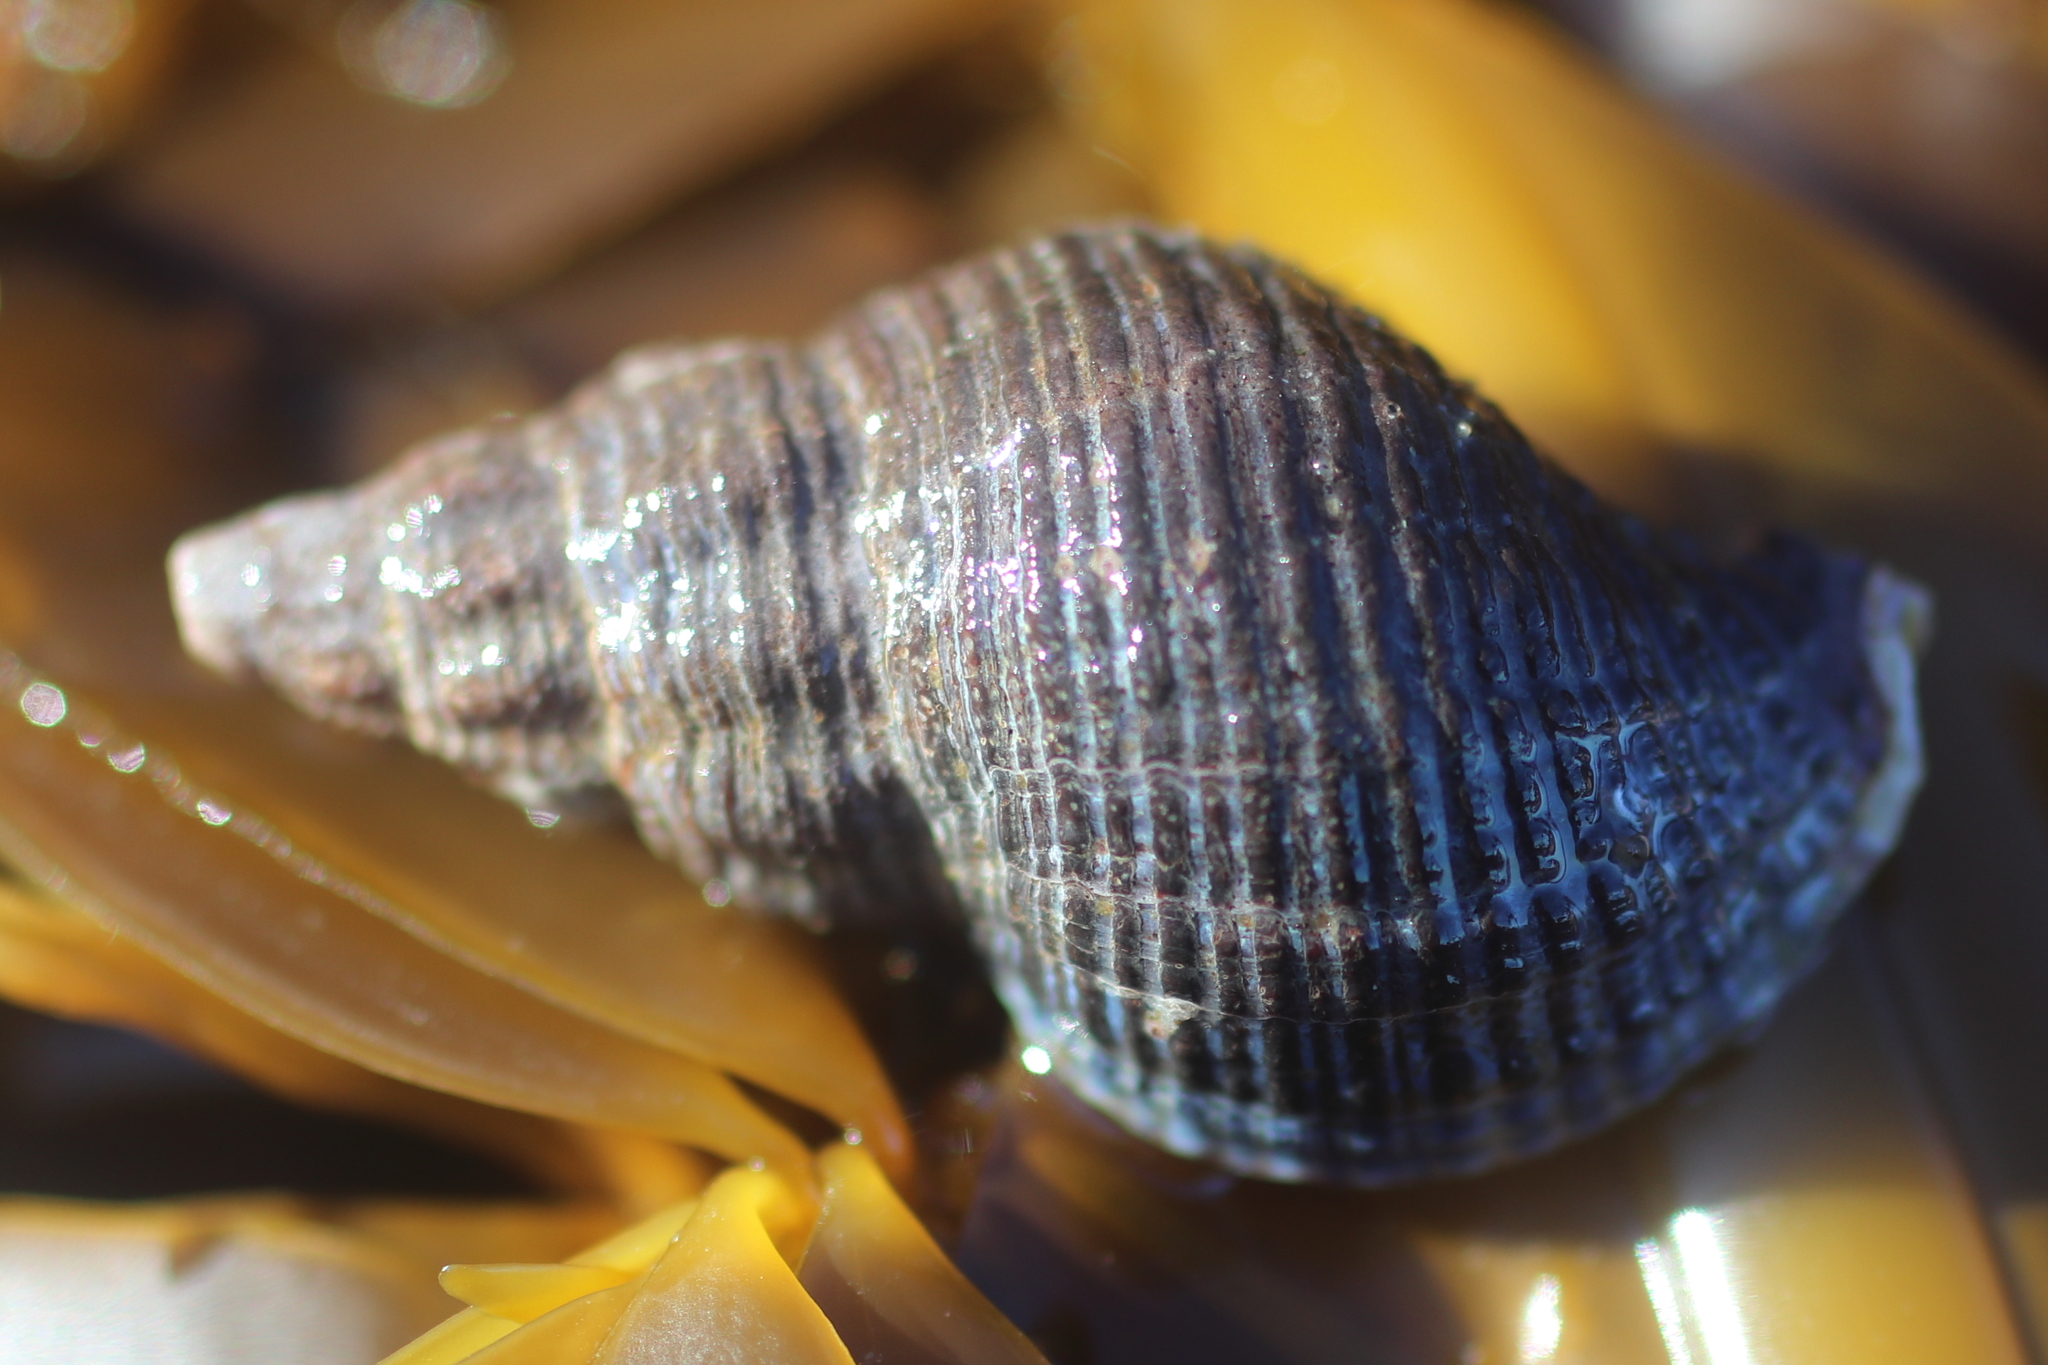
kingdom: Animalia
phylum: Mollusca
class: Gastropoda
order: Neogastropoda
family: Tudiclidae
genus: Lirabuccinum
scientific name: Lirabuccinum dirum
